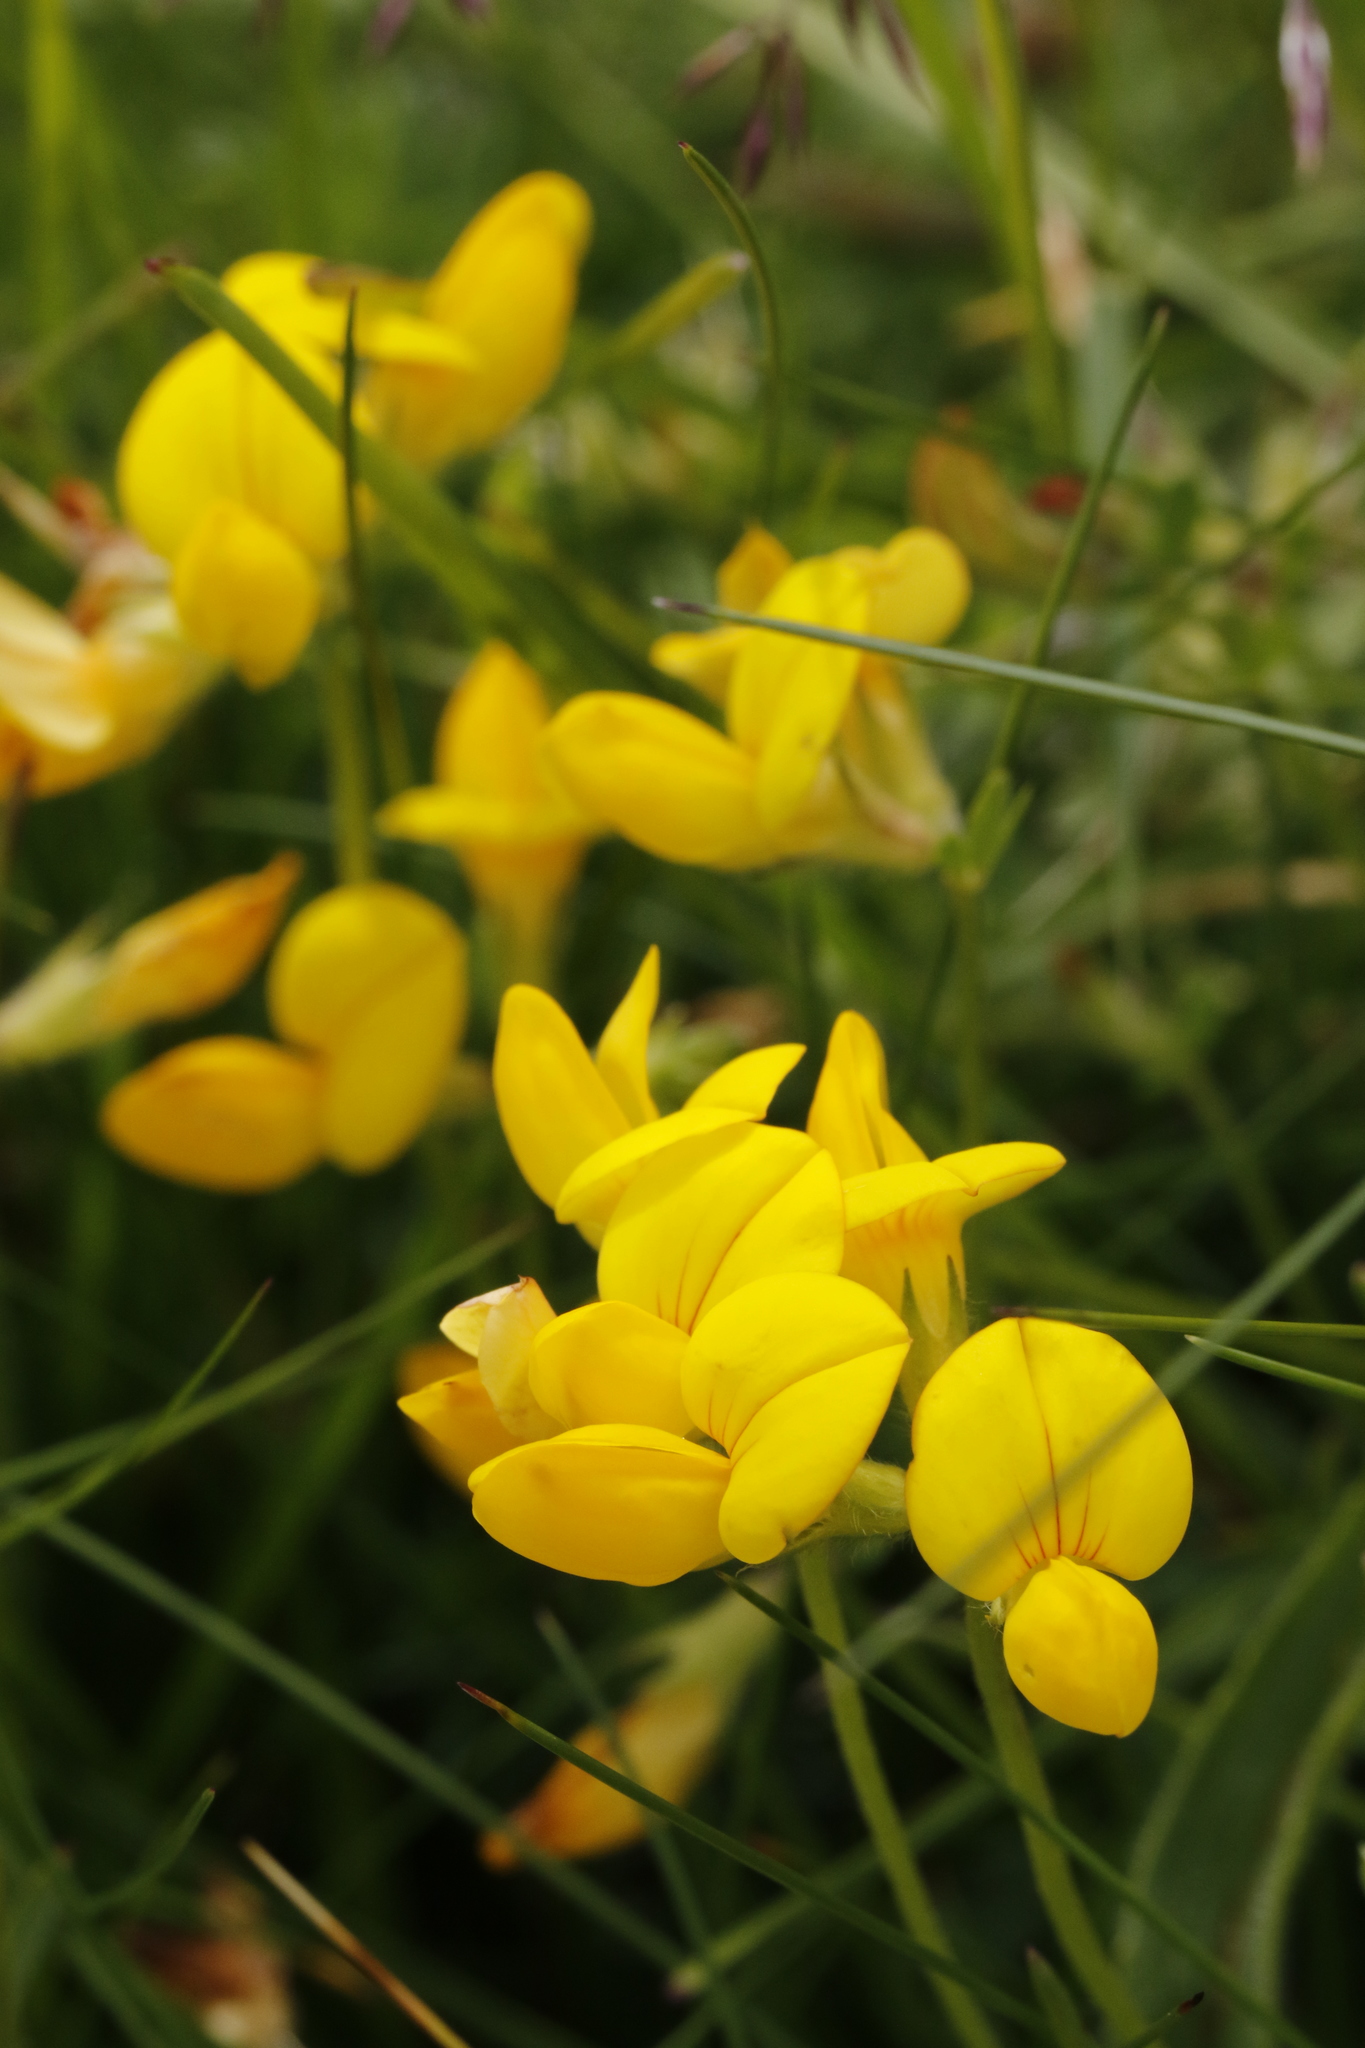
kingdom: Plantae
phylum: Tracheophyta
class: Magnoliopsida
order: Fabales
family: Fabaceae
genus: Lotus
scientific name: Lotus corniculatus
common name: Common bird's-foot-trefoil
